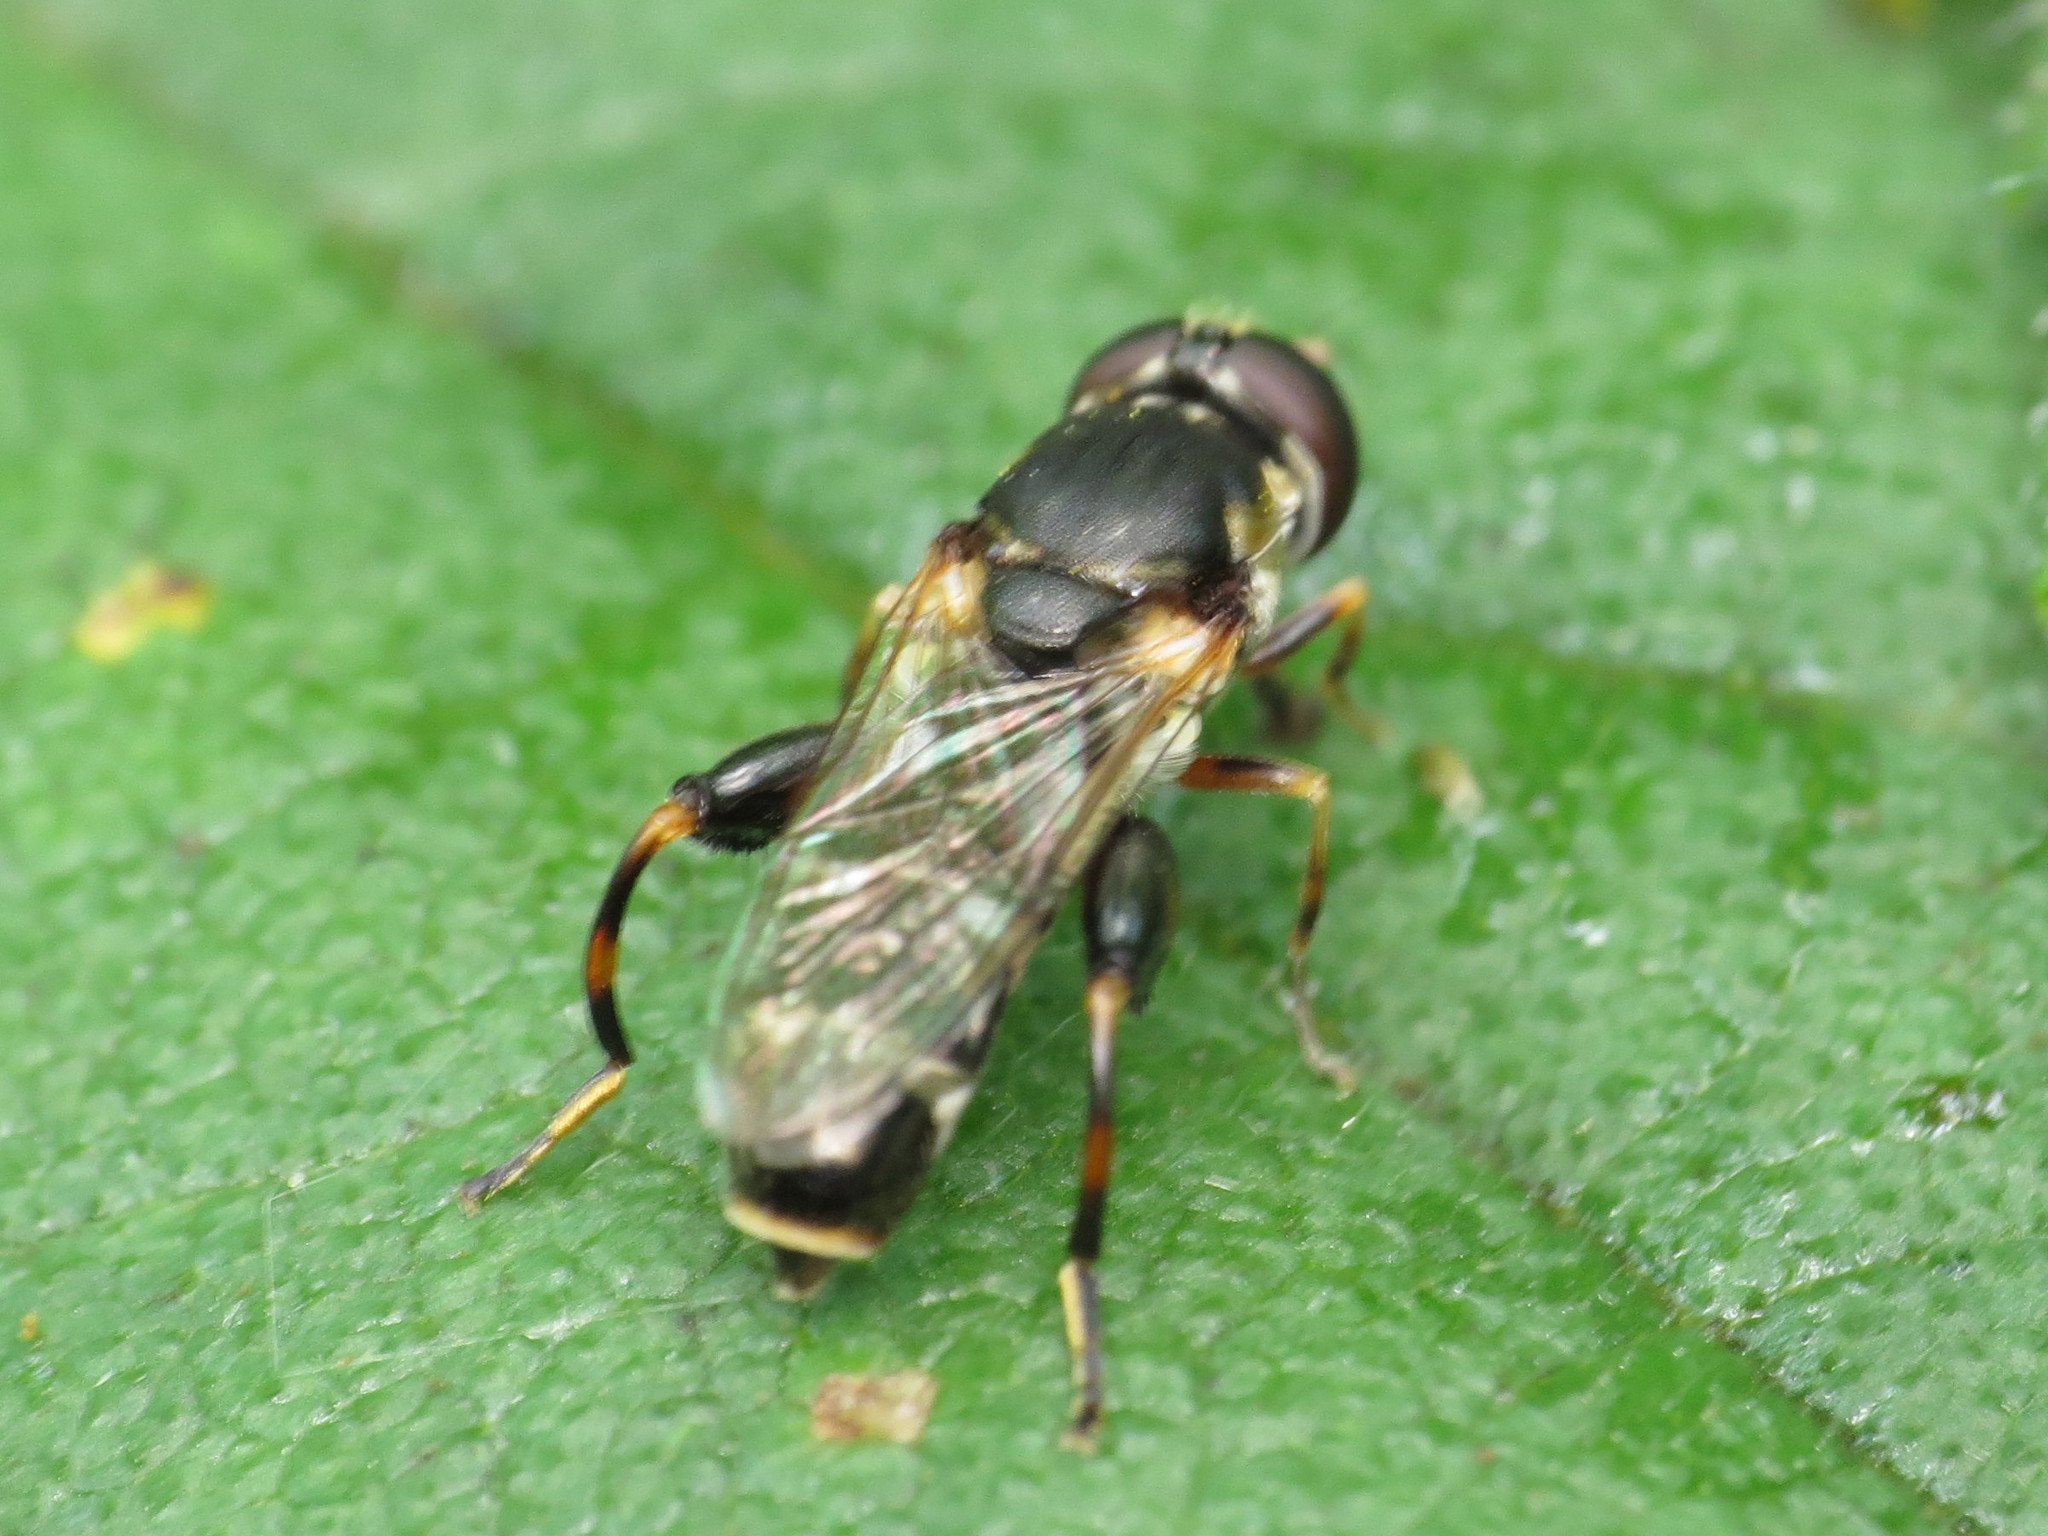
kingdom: Animalia
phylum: Arthropoda
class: Insecta
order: Diptera
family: Syrphidae
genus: Syritta
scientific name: Syritta pipiens
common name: Hover fly
